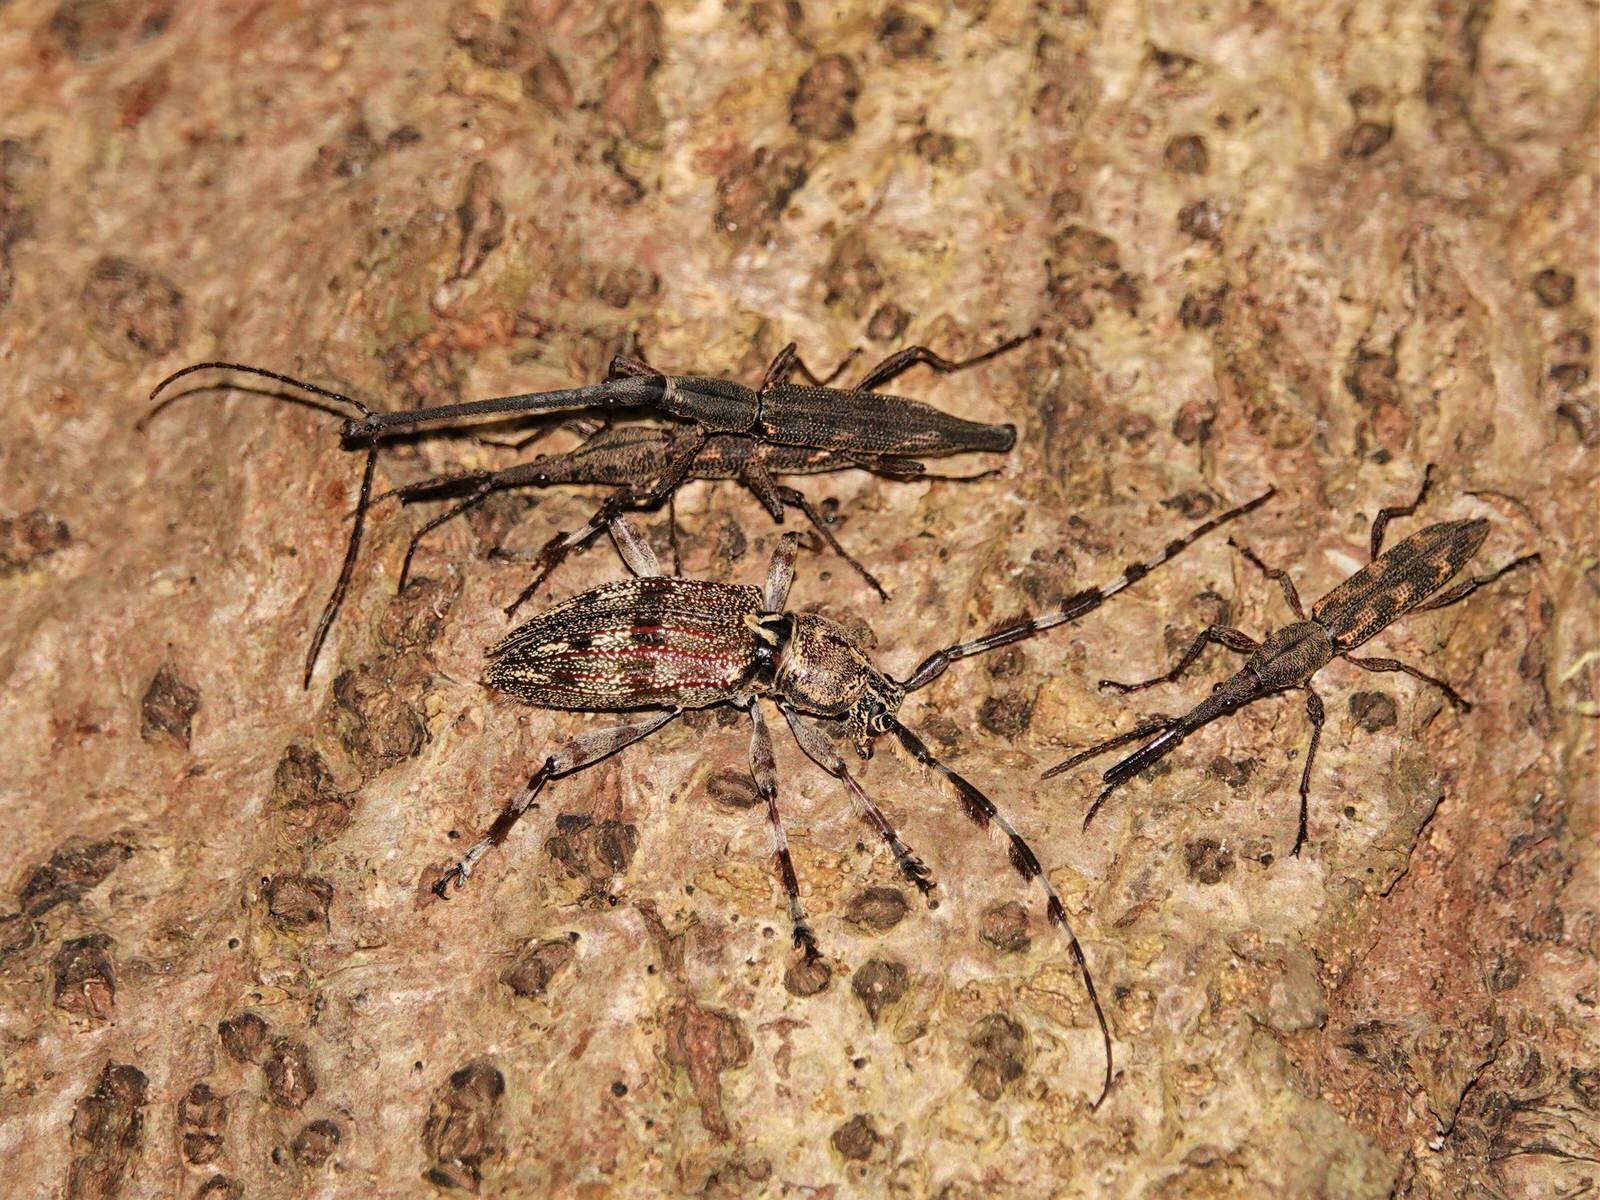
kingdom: Animalia
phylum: Arthropoda
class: Insecta
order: Coleoptera
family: Brentidae
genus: Lasiorhynchus
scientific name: Lasiorhynchus barbicornis
